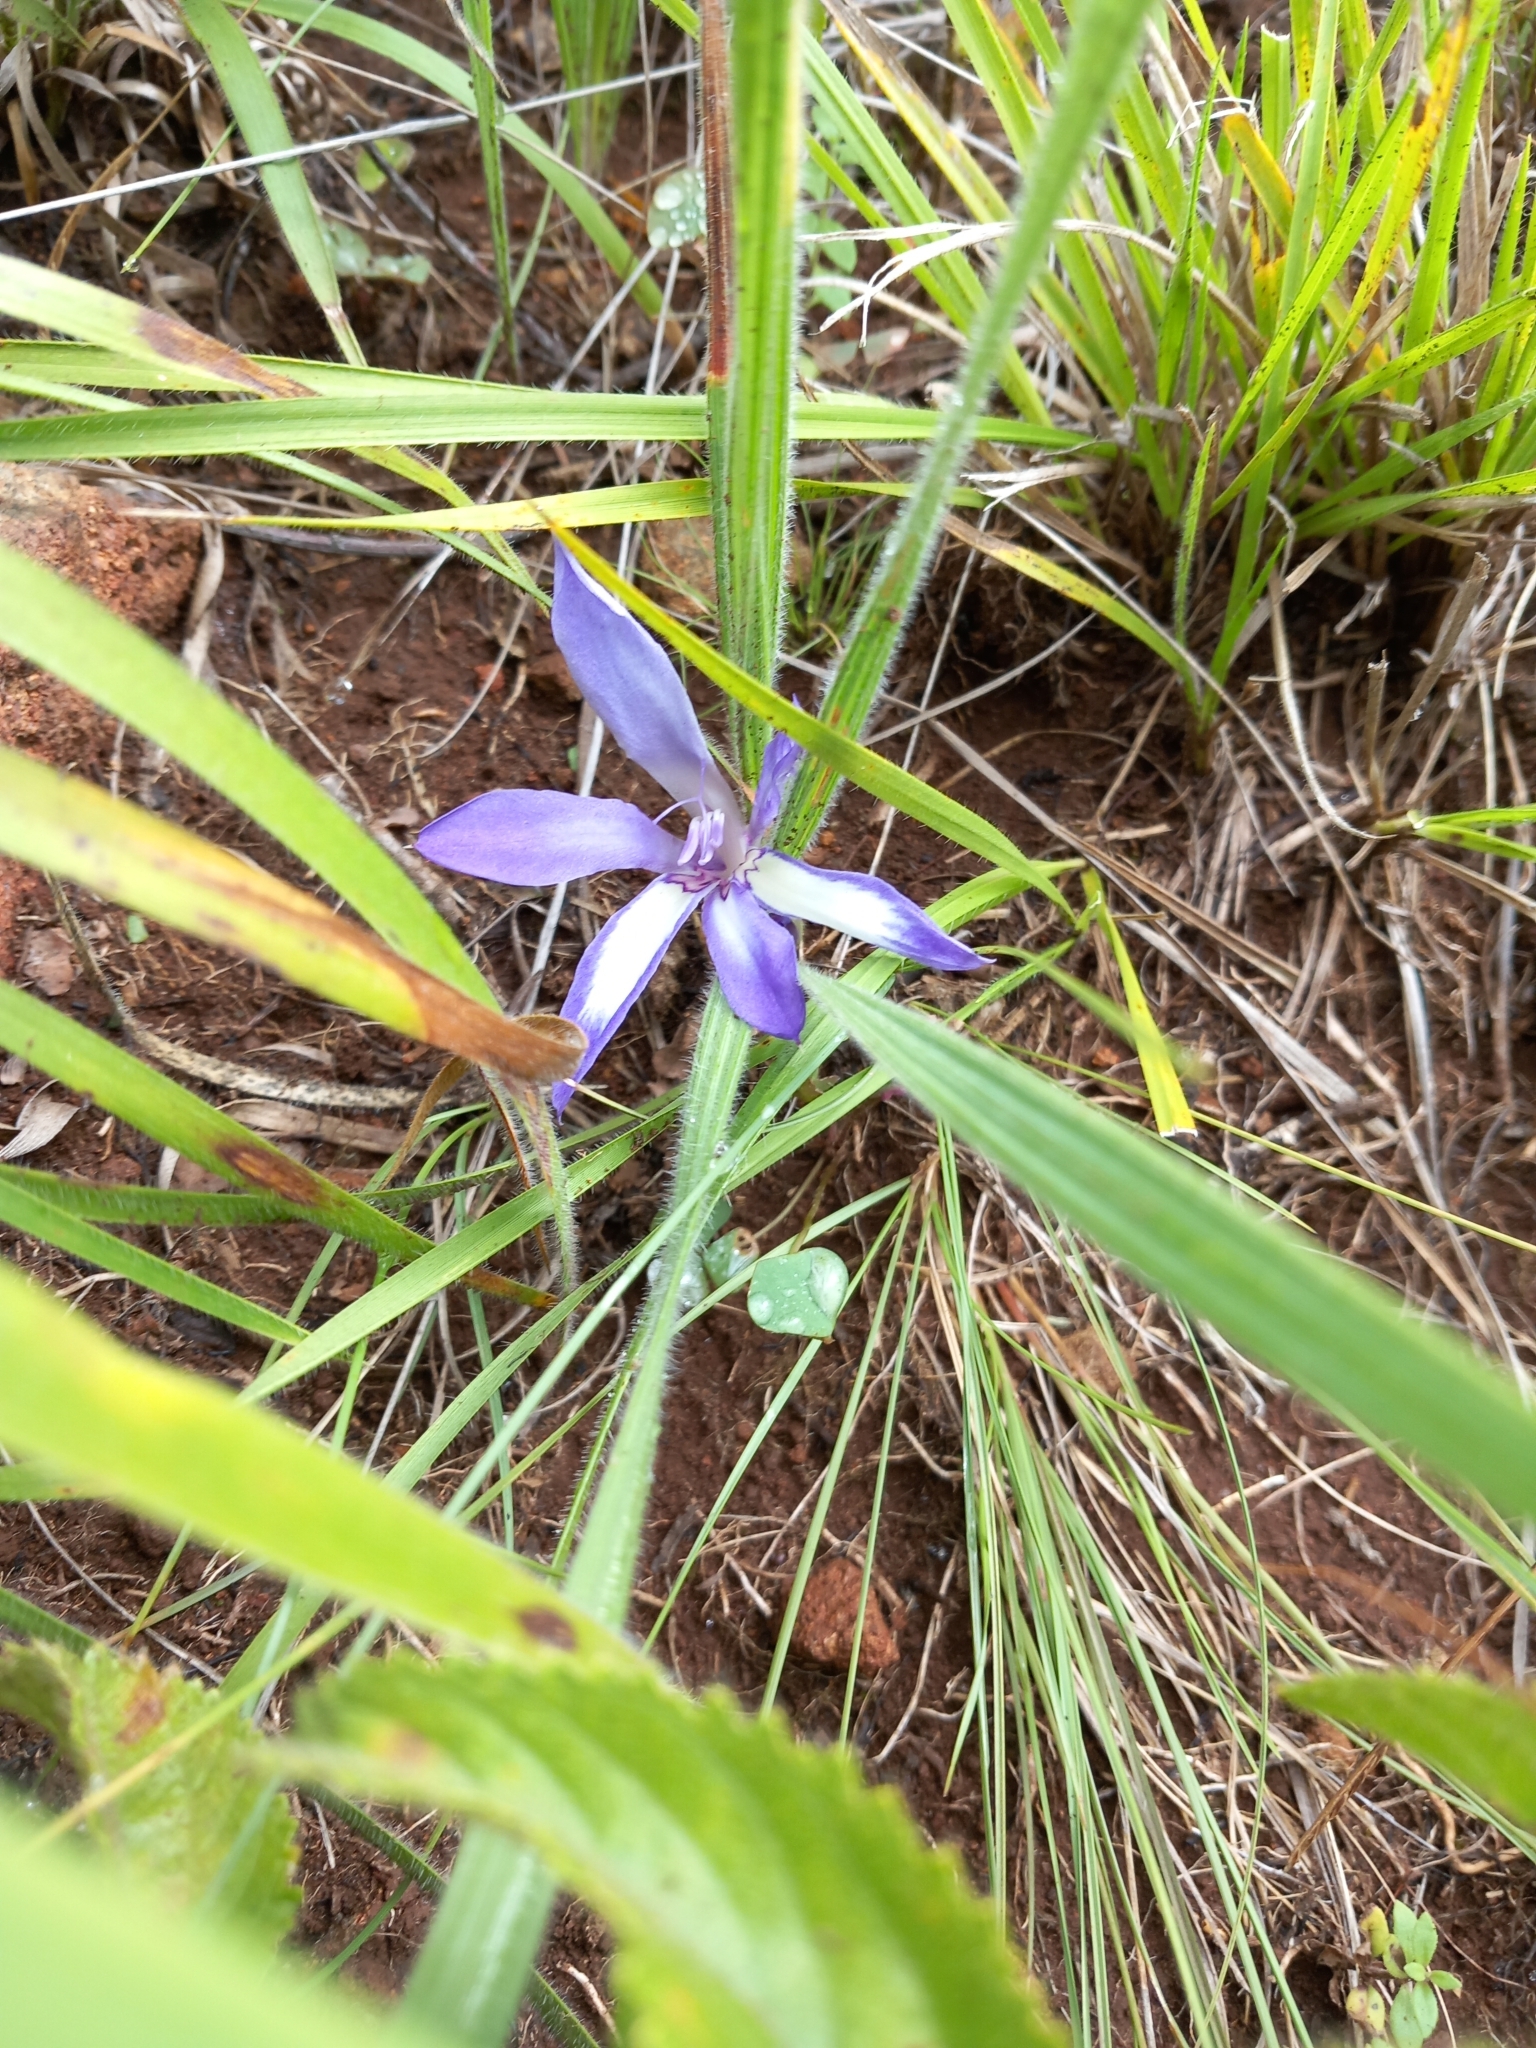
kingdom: Plantae
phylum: Tracheophyta
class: Liliopsida
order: Asparagales
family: Iridaceae
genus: Babiana
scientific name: Babiana bainesii
